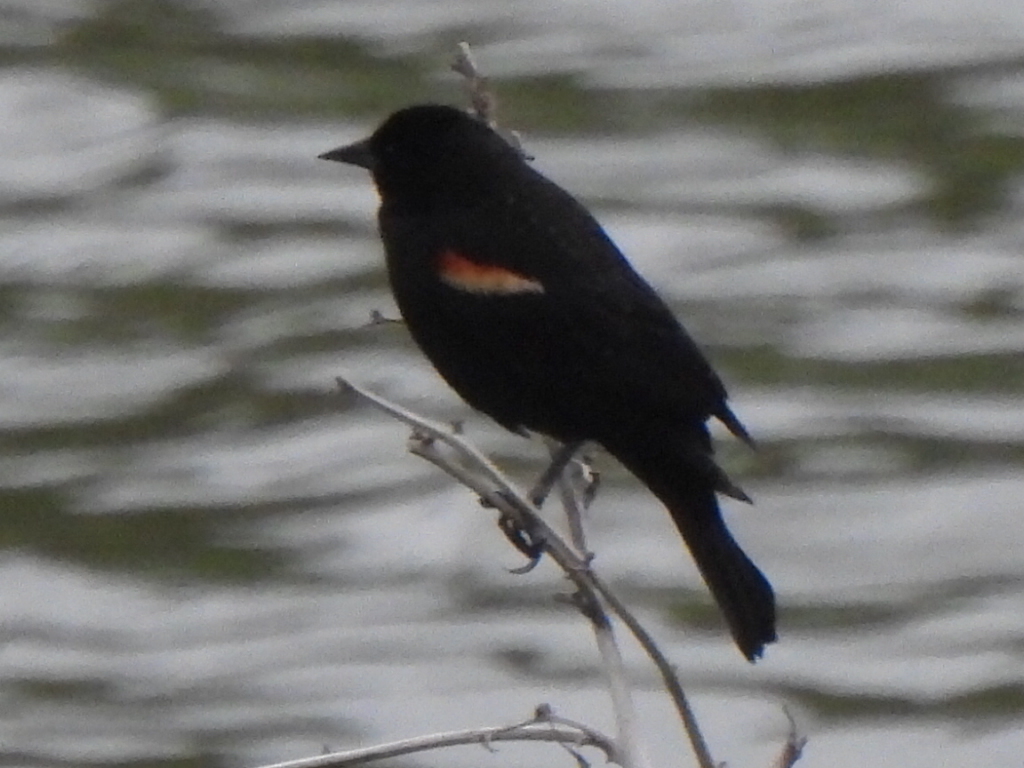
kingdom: Animalia
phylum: Chordata
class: Aves
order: Passeriformes
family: Icteridae
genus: Agelaius
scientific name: Agelaius phoeniceus
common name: Red-winged blackbird
